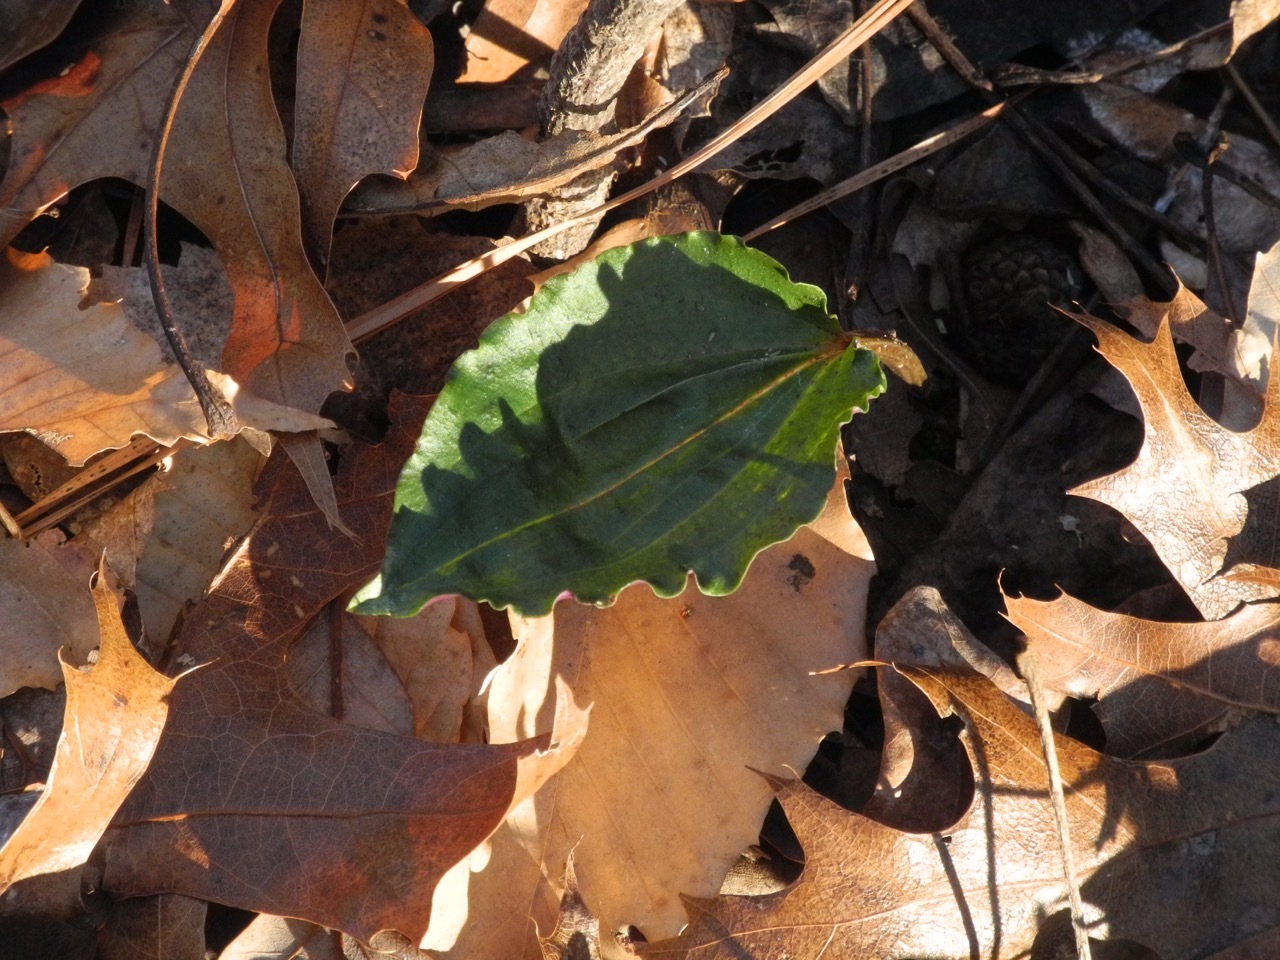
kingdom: Plantae
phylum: Tracheophyta
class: Liliopsida
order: Asparagales
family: Orchidaceae
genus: Tipularia
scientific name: Tipularia discolor
